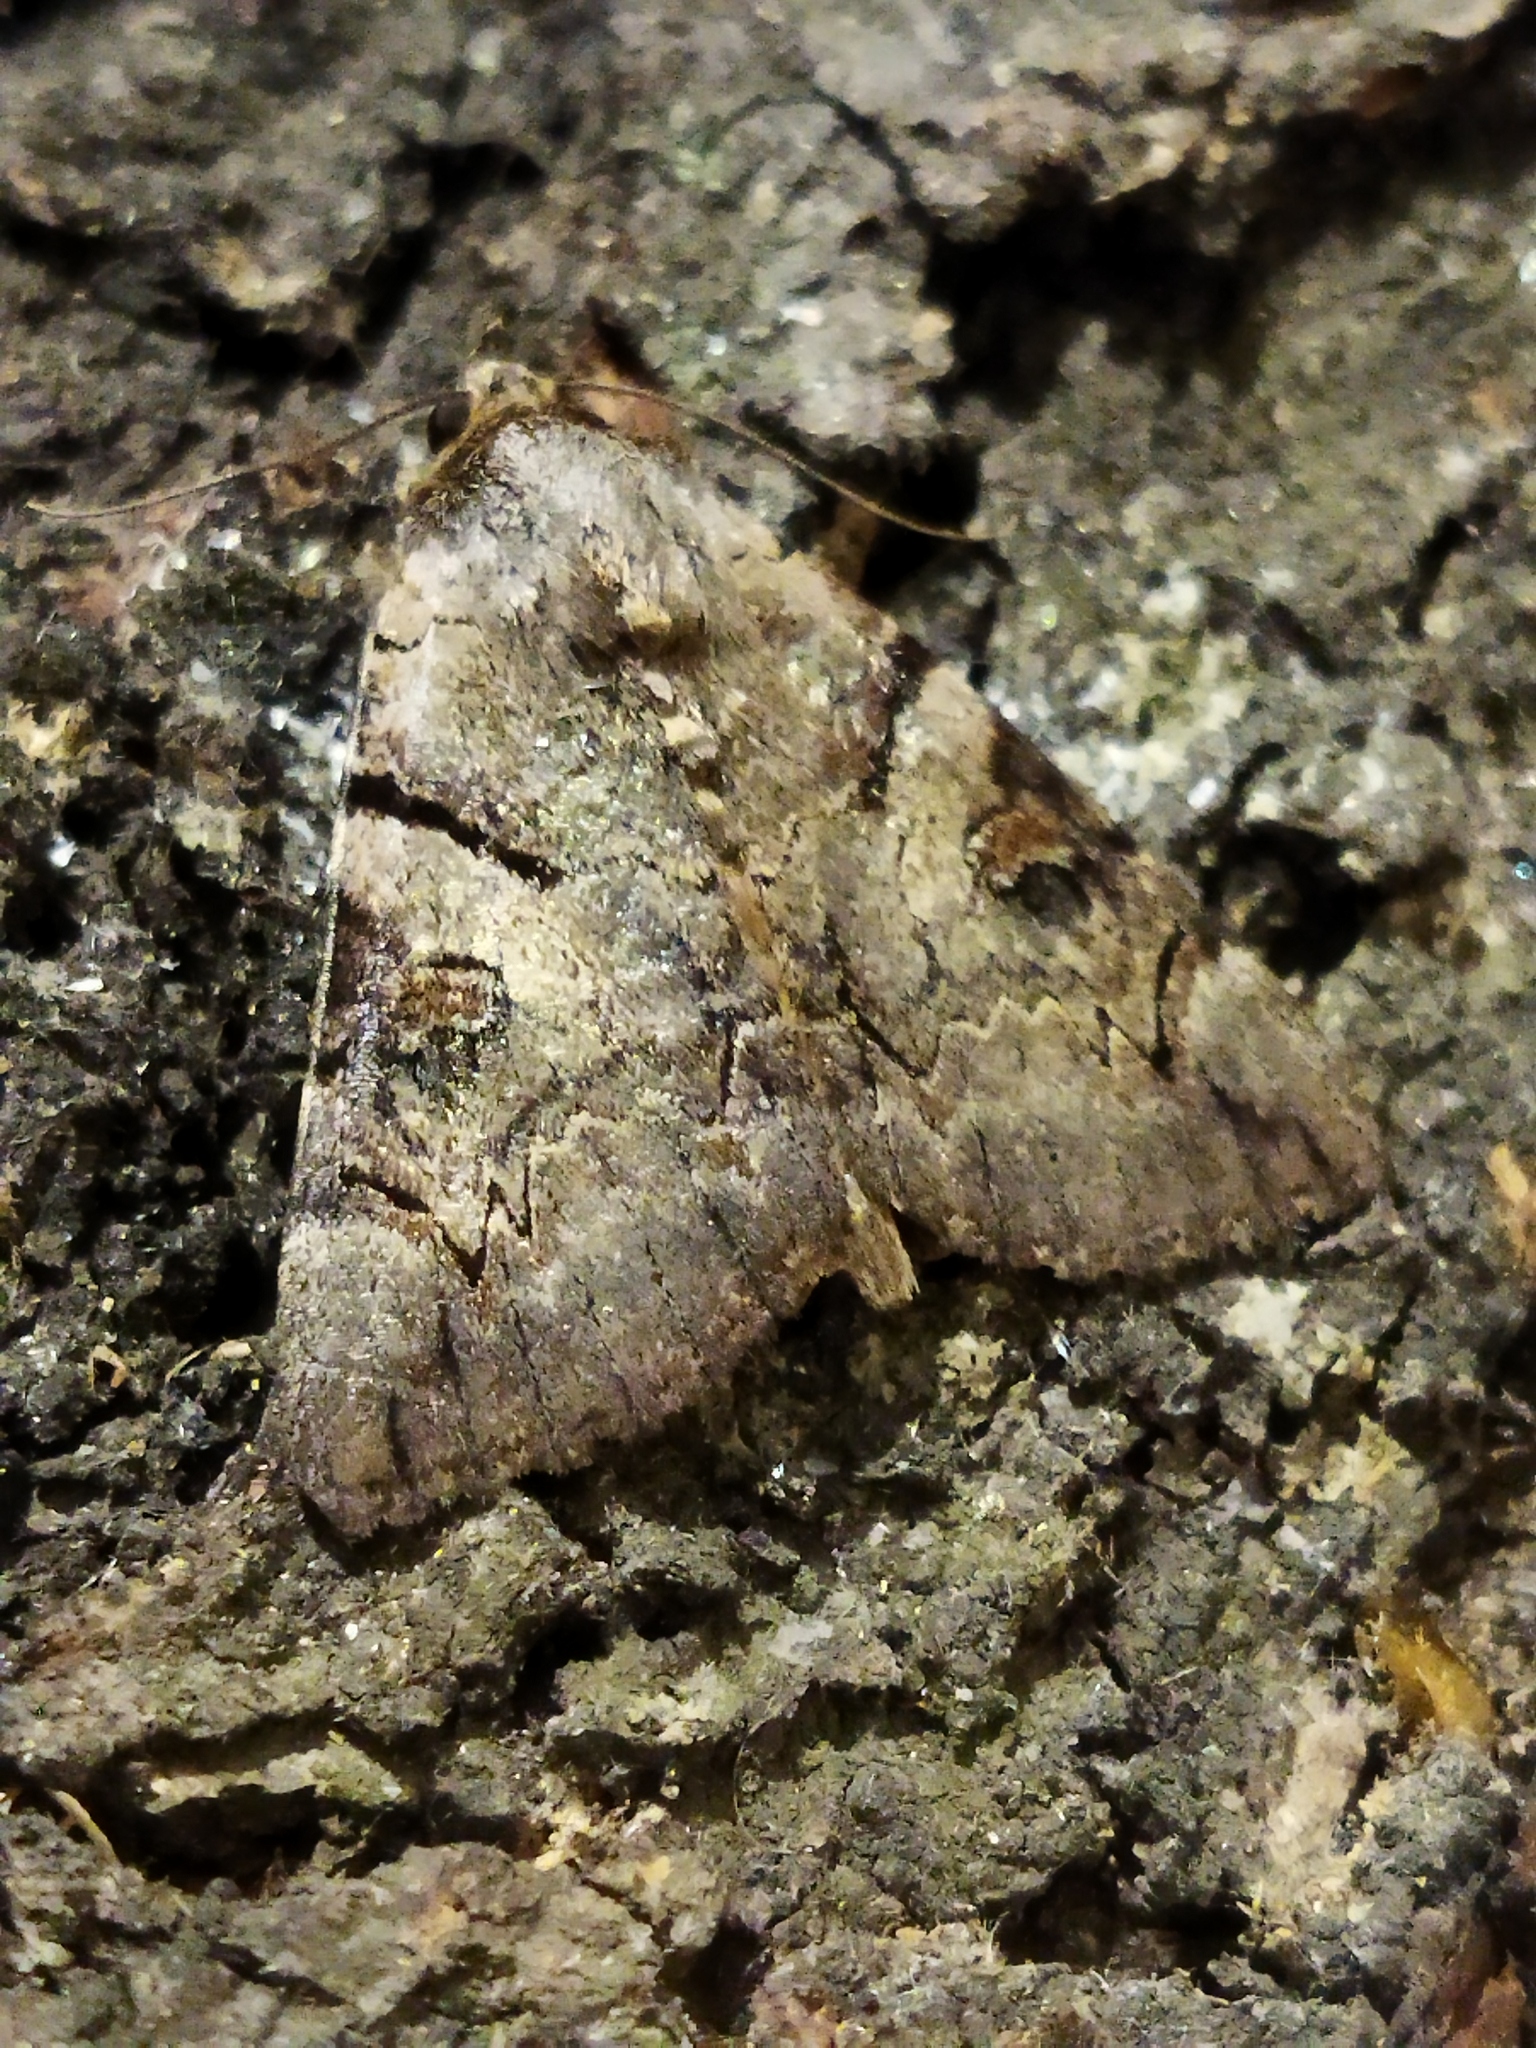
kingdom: Animalia
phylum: Arthropoda
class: Insecta
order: Lepidoptera
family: Erebidae
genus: Catocala
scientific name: Catocala hymenaea
